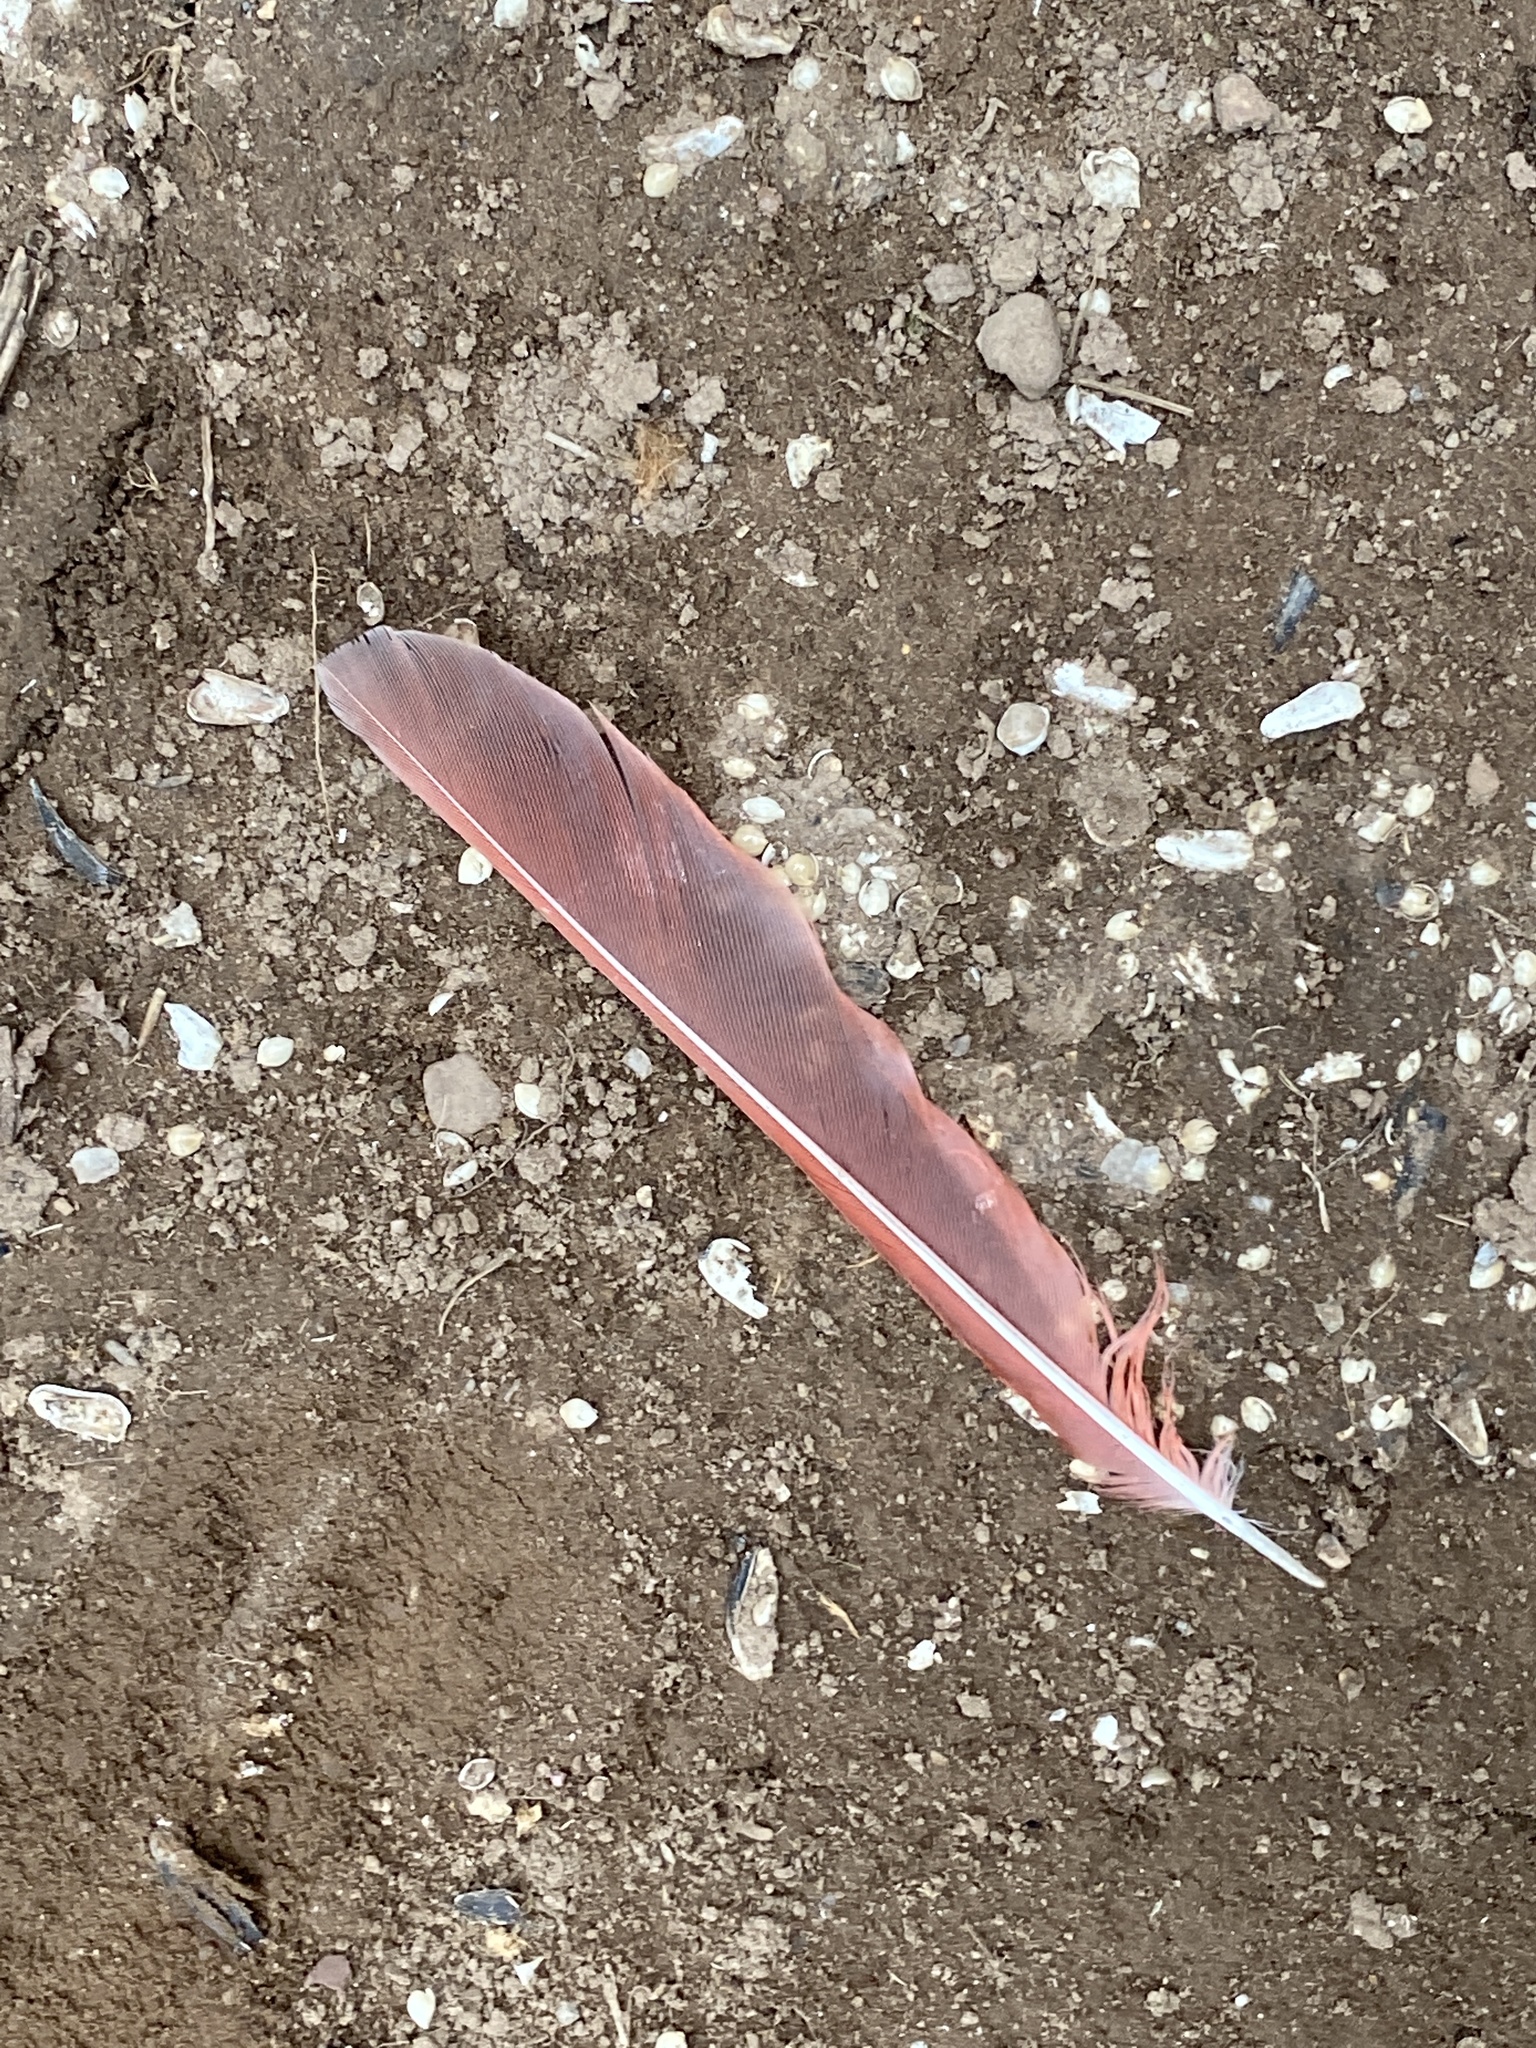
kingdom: Animalia
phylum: Chordata
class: Aves
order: Passeriformes
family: Cardinalidae
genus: Cardinalis
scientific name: Cardinalis cardinalis
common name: Northern cardinal
